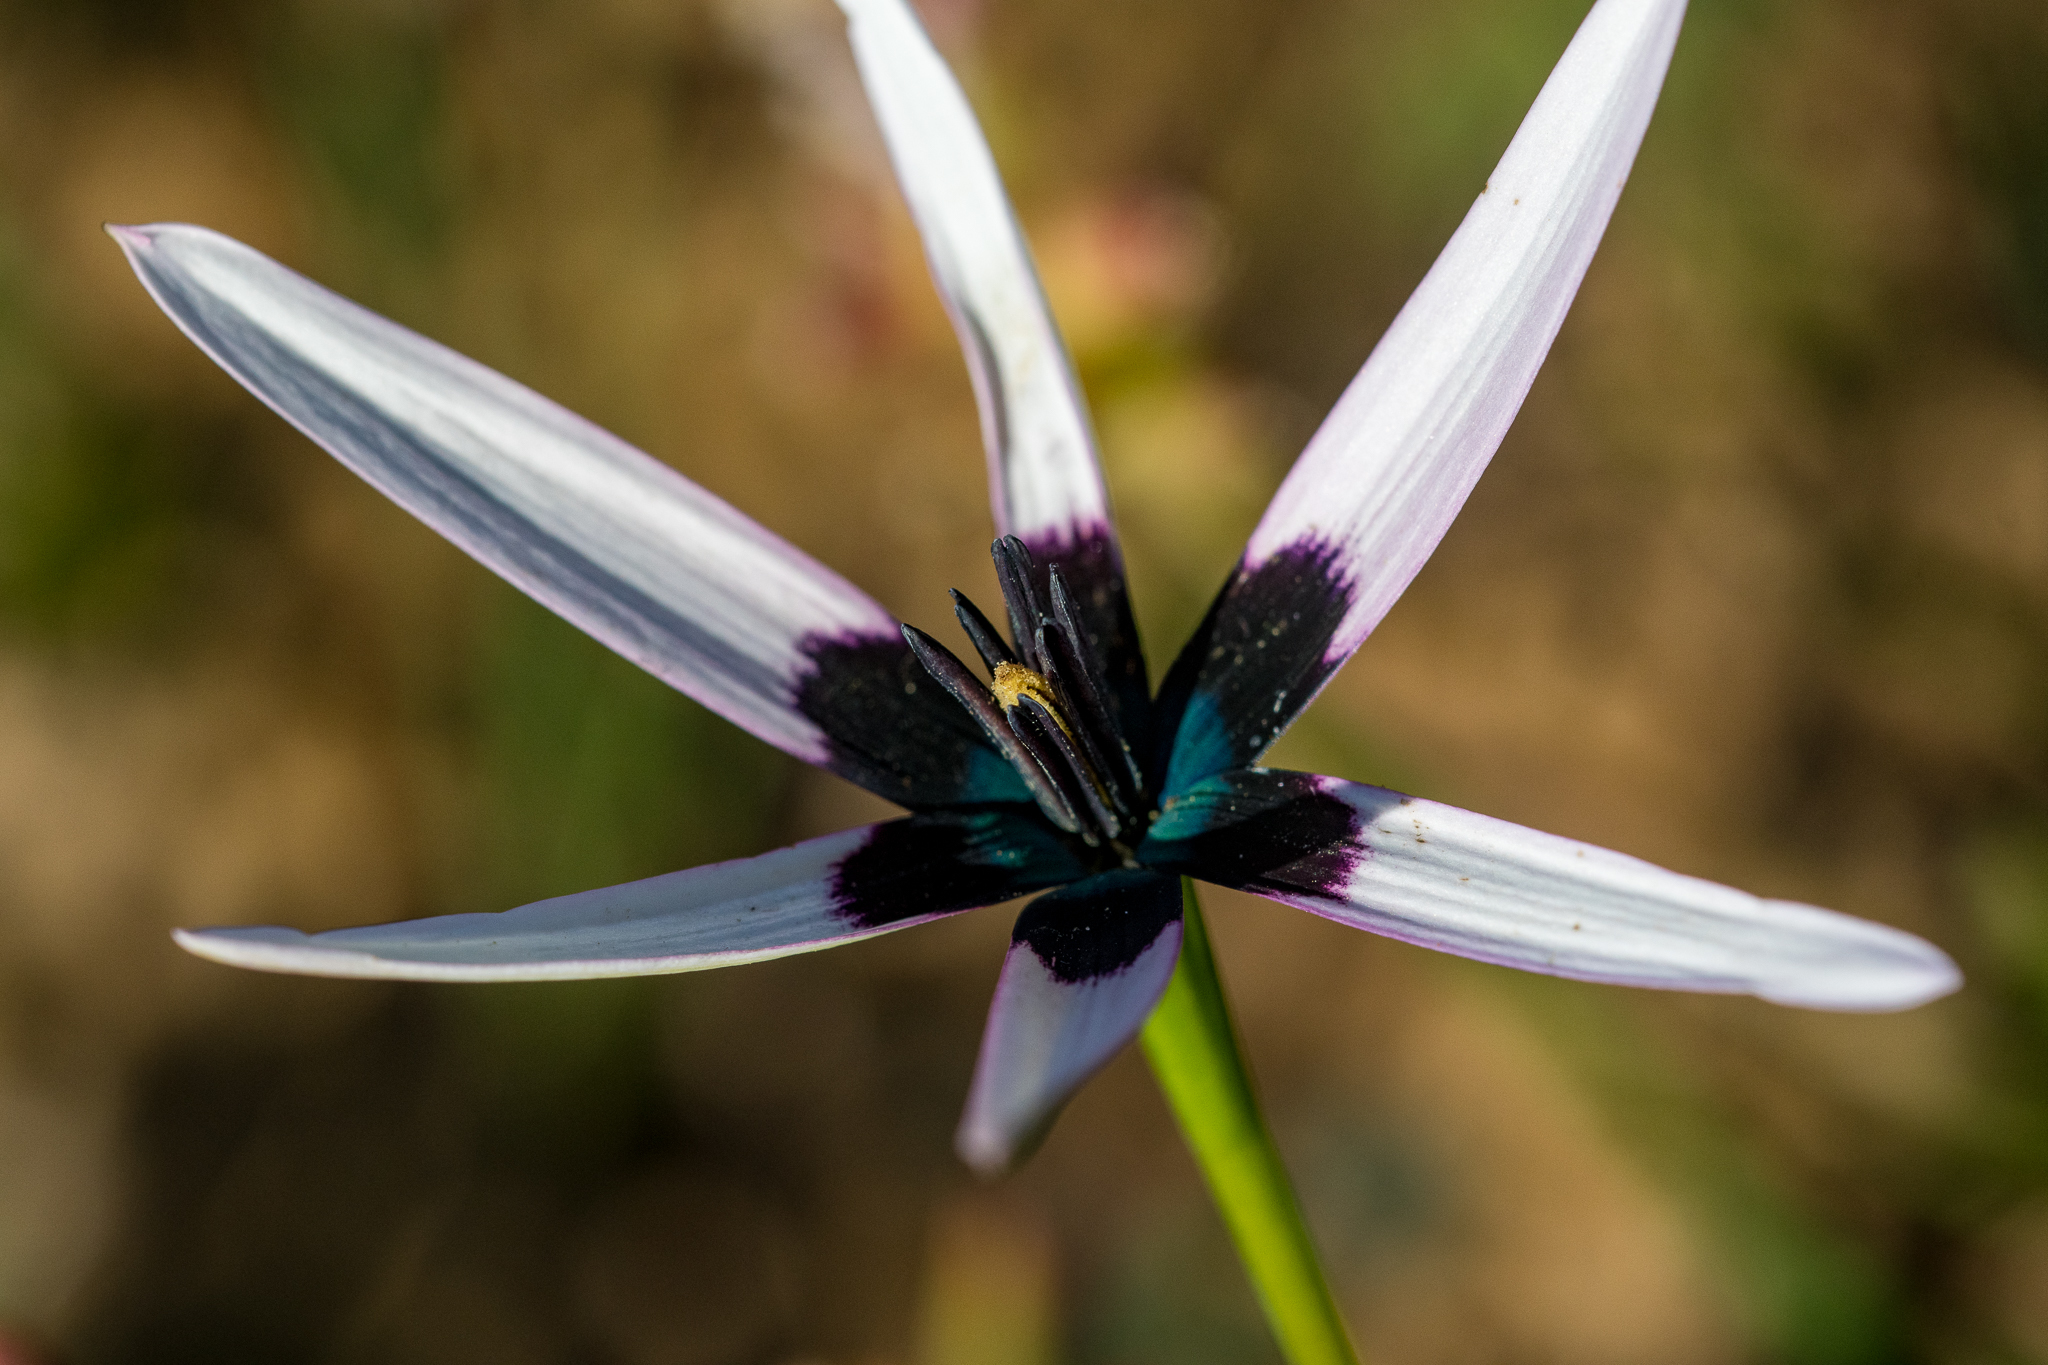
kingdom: Plantae
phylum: Tracheophyta
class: Liliopsida
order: Asparagales
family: Hypoxidaceae
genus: Pauridia
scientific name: Pauridia capensis
